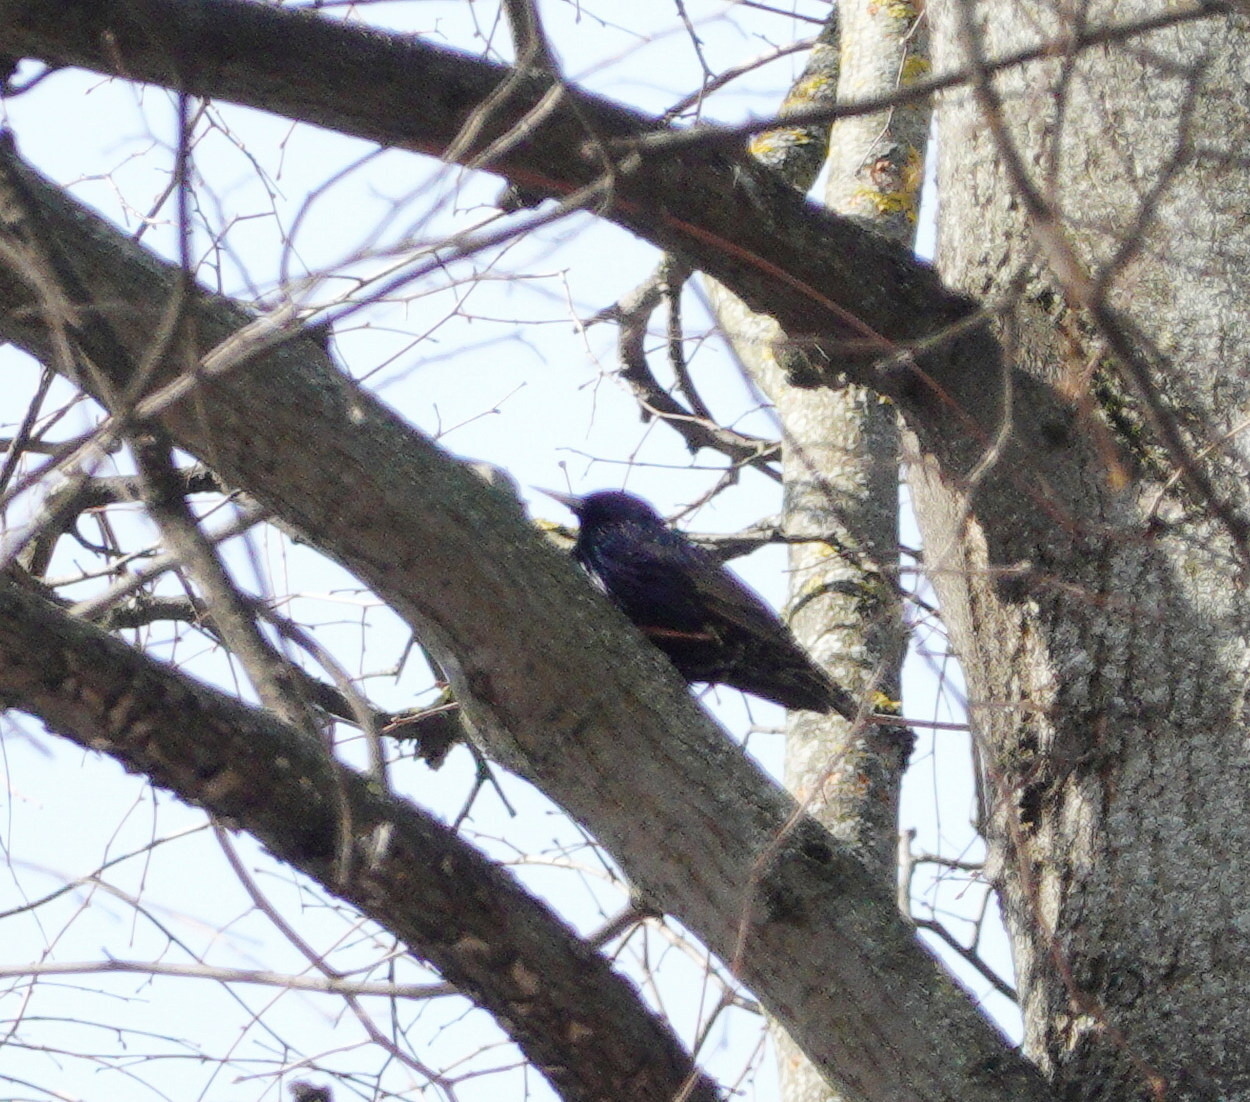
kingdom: Animalia
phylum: Chordata
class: Aves
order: Passeriformes
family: Sturnidae
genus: Sturnus
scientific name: Sturnus vulgaris
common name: Common starling
